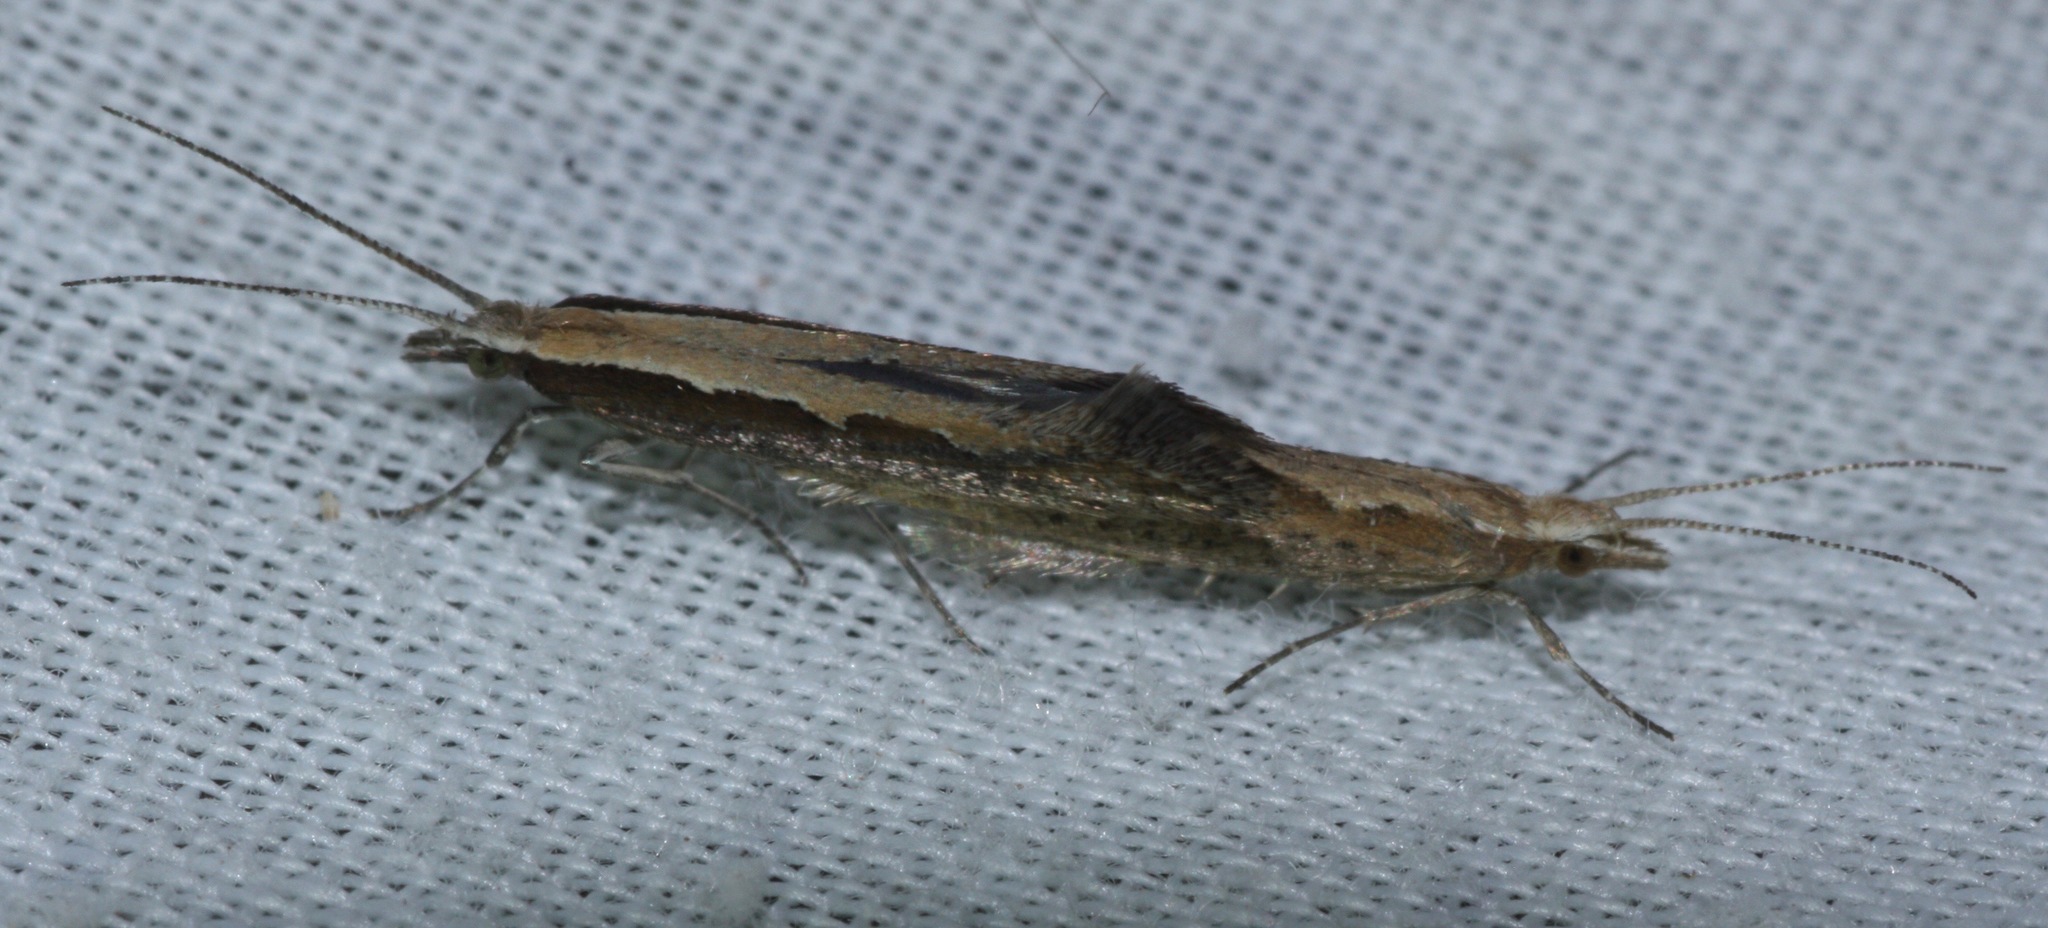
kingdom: Animalia
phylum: Arthropoda
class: Insecta
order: Lepidoptera
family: Plutellidae
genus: Plutella
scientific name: Plutella xylostella
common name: Diamond-back moth
